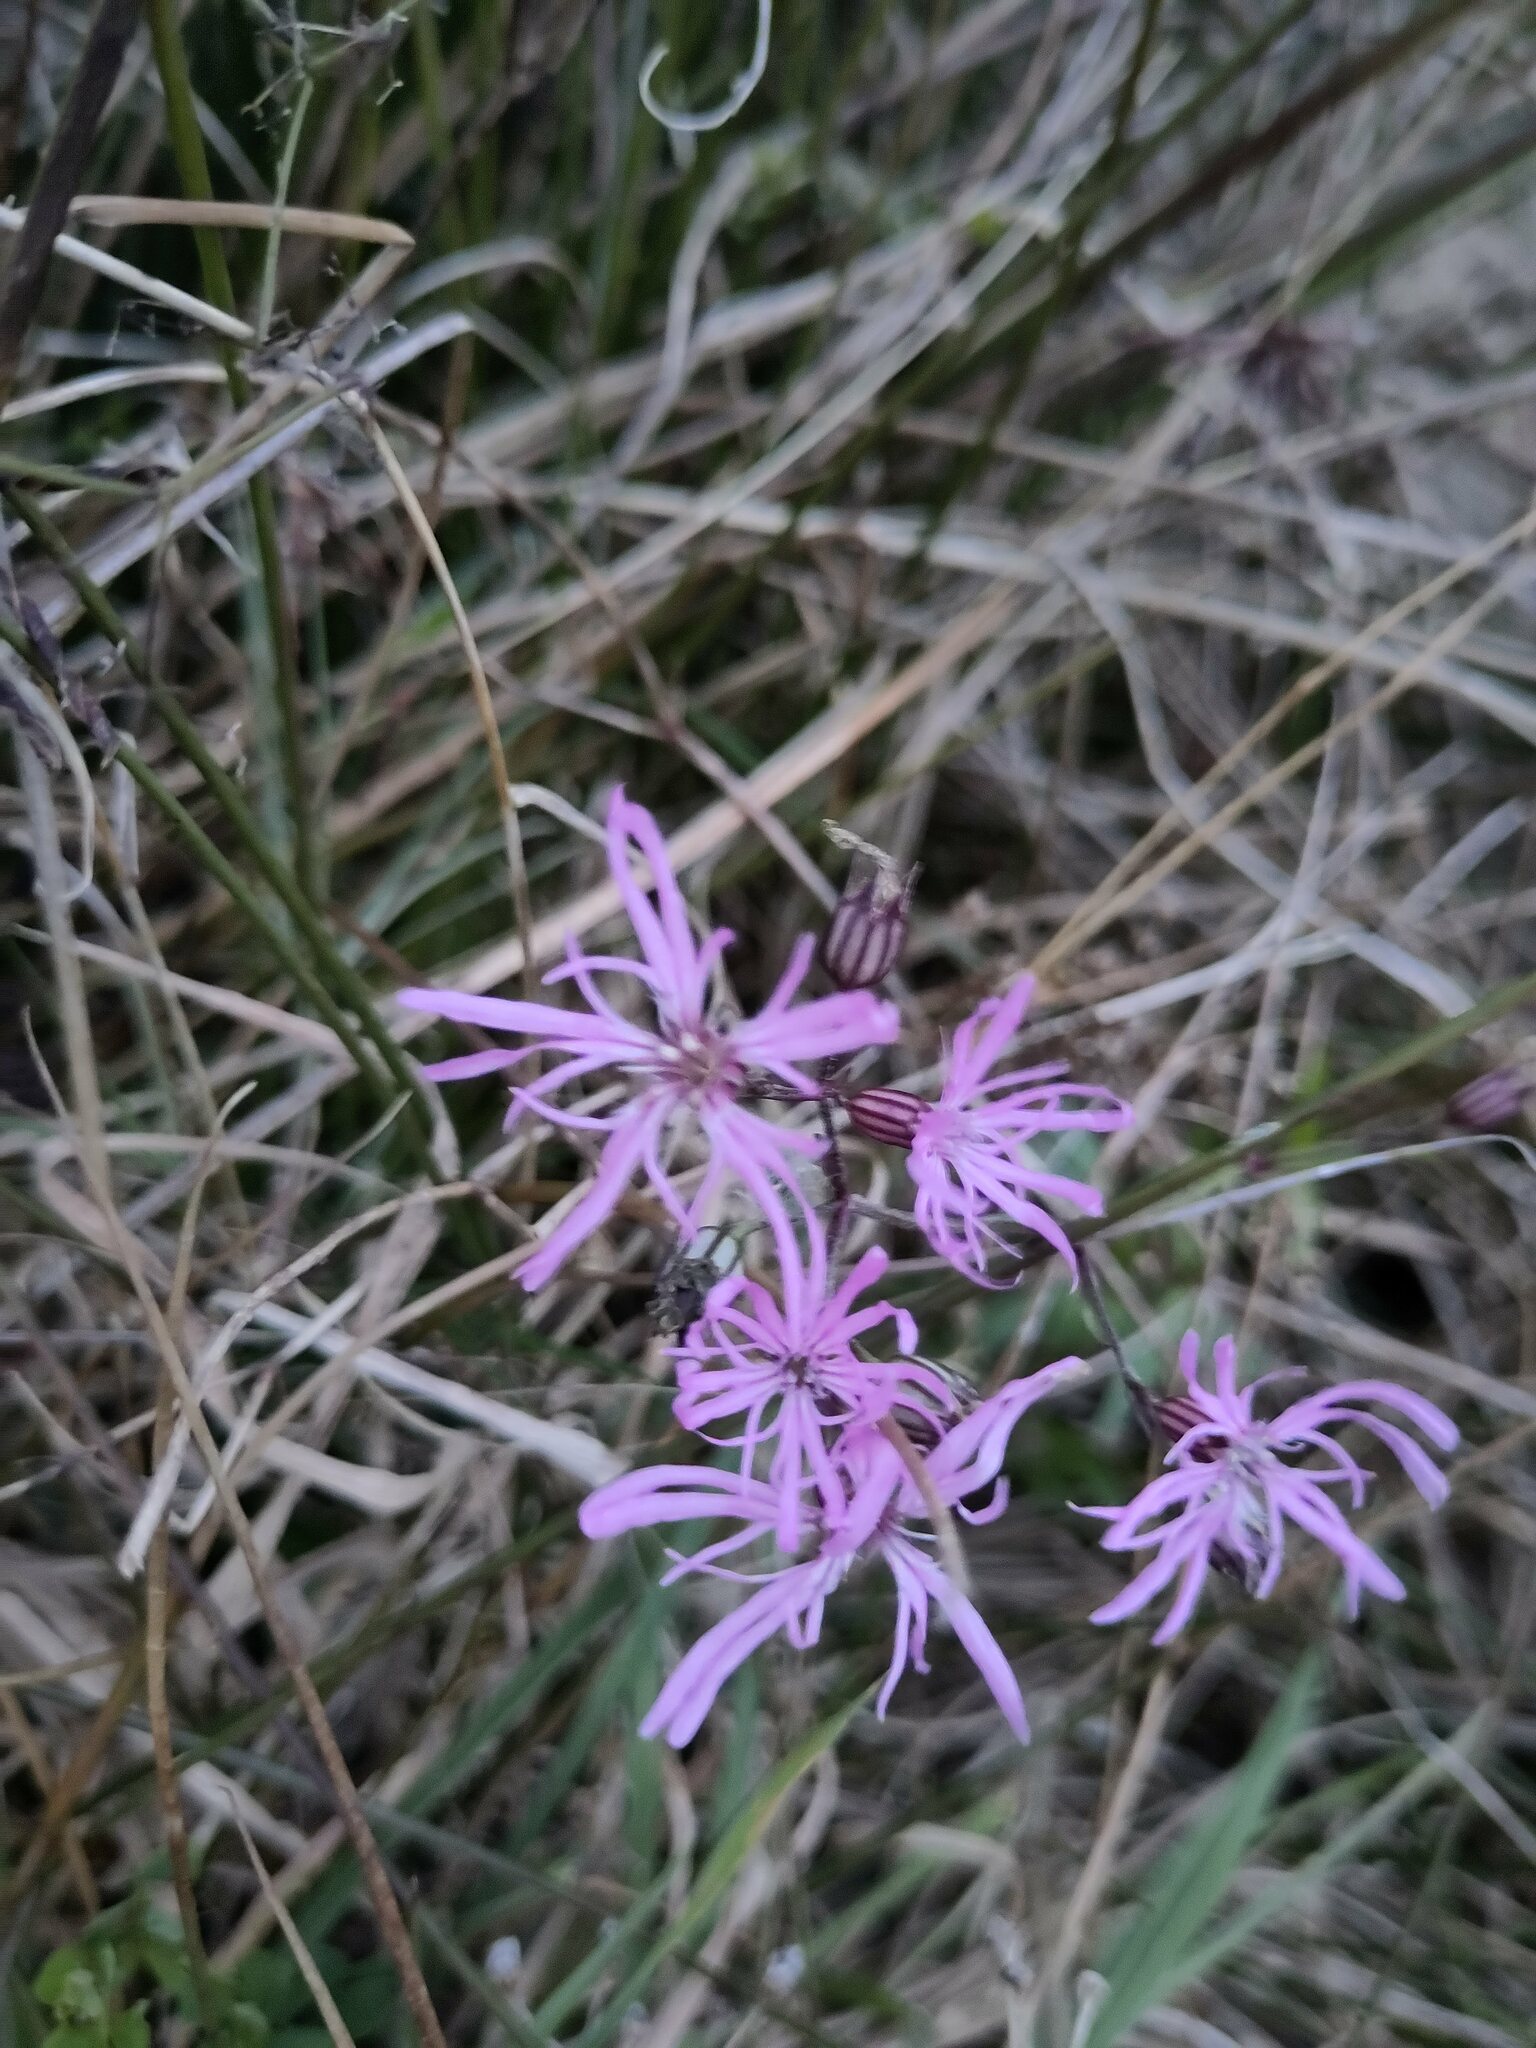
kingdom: Plantae
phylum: Tracheophyta
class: Magnoliopsida
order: Caryophyllales
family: Caryophyllaceae
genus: Silene
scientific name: Silene flos-cuculi
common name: Ragged-robin
